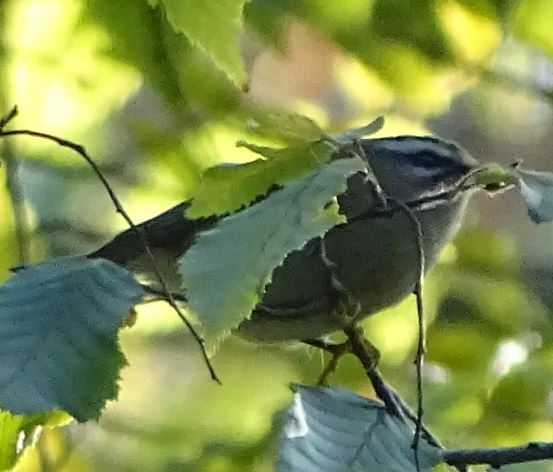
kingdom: Animalia
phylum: Chordata
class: Aves
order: Passeriformes
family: Regulidae
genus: Regulus
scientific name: Regulus ignicapilla
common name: Firecrest
